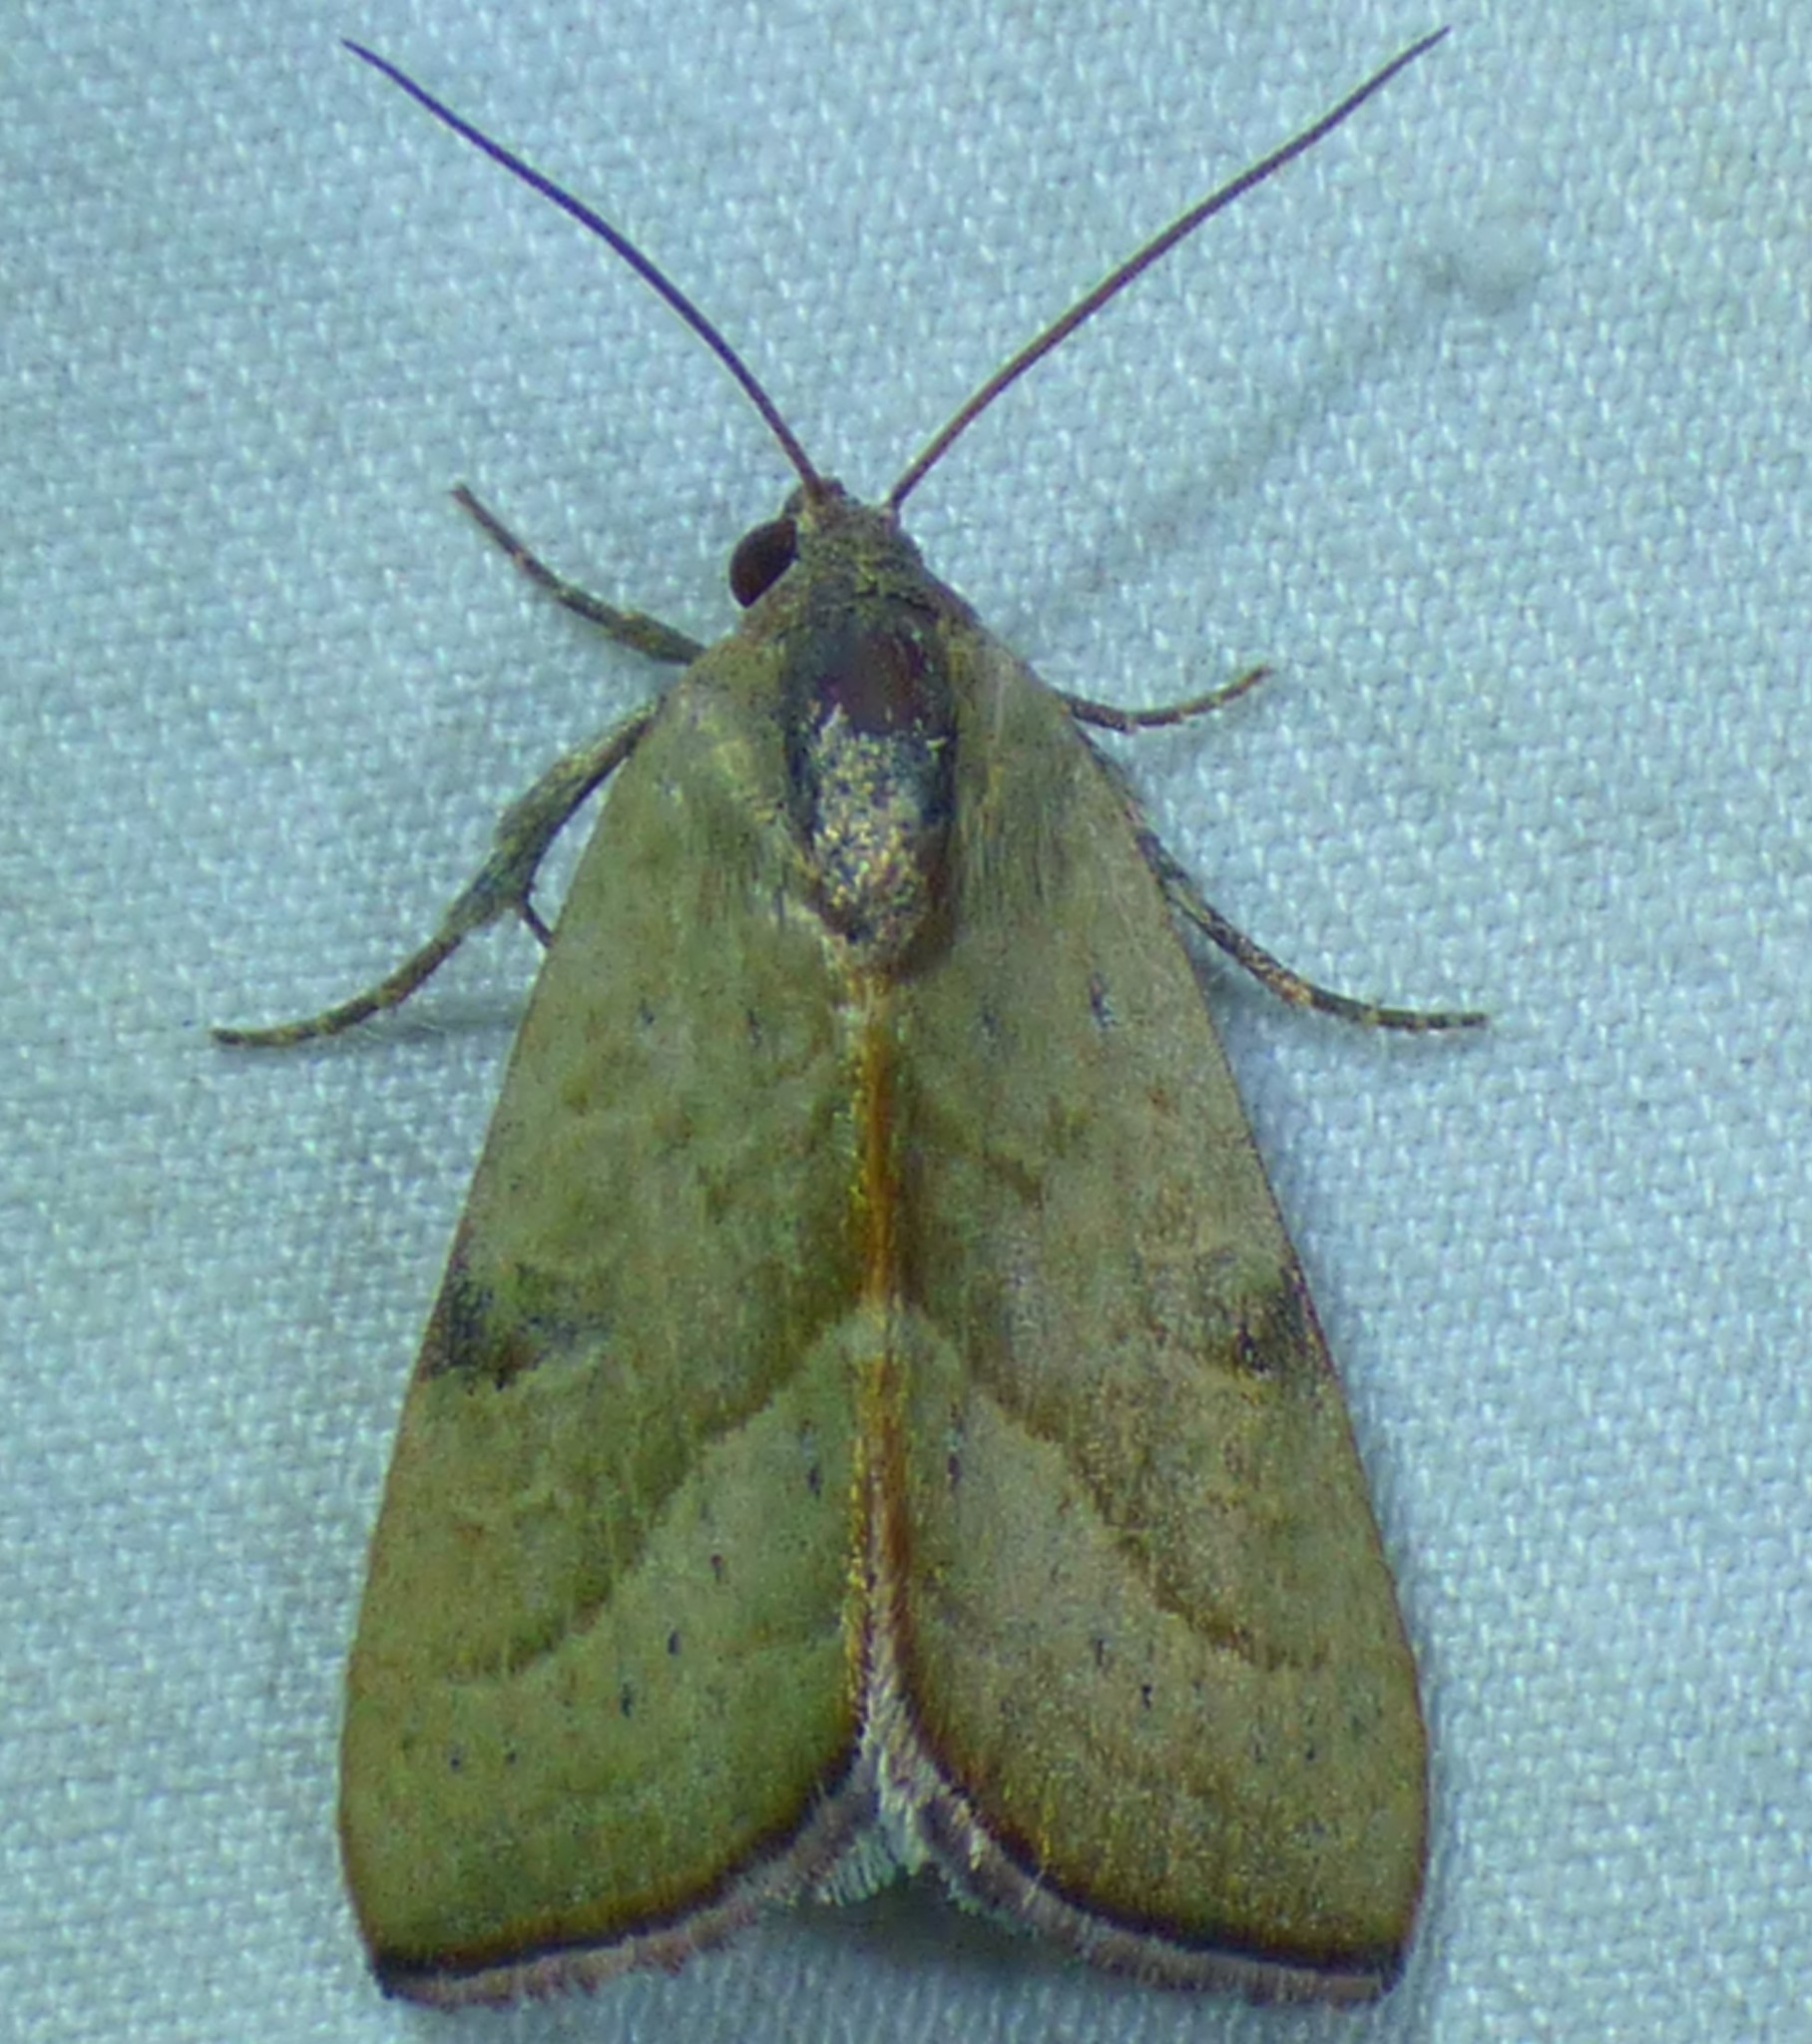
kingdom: Animalia
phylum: Arthropoda
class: Insecta
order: Lepidoptera
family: Noctuidae
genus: Galgula
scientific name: Galgula partita
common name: Wedgeling
